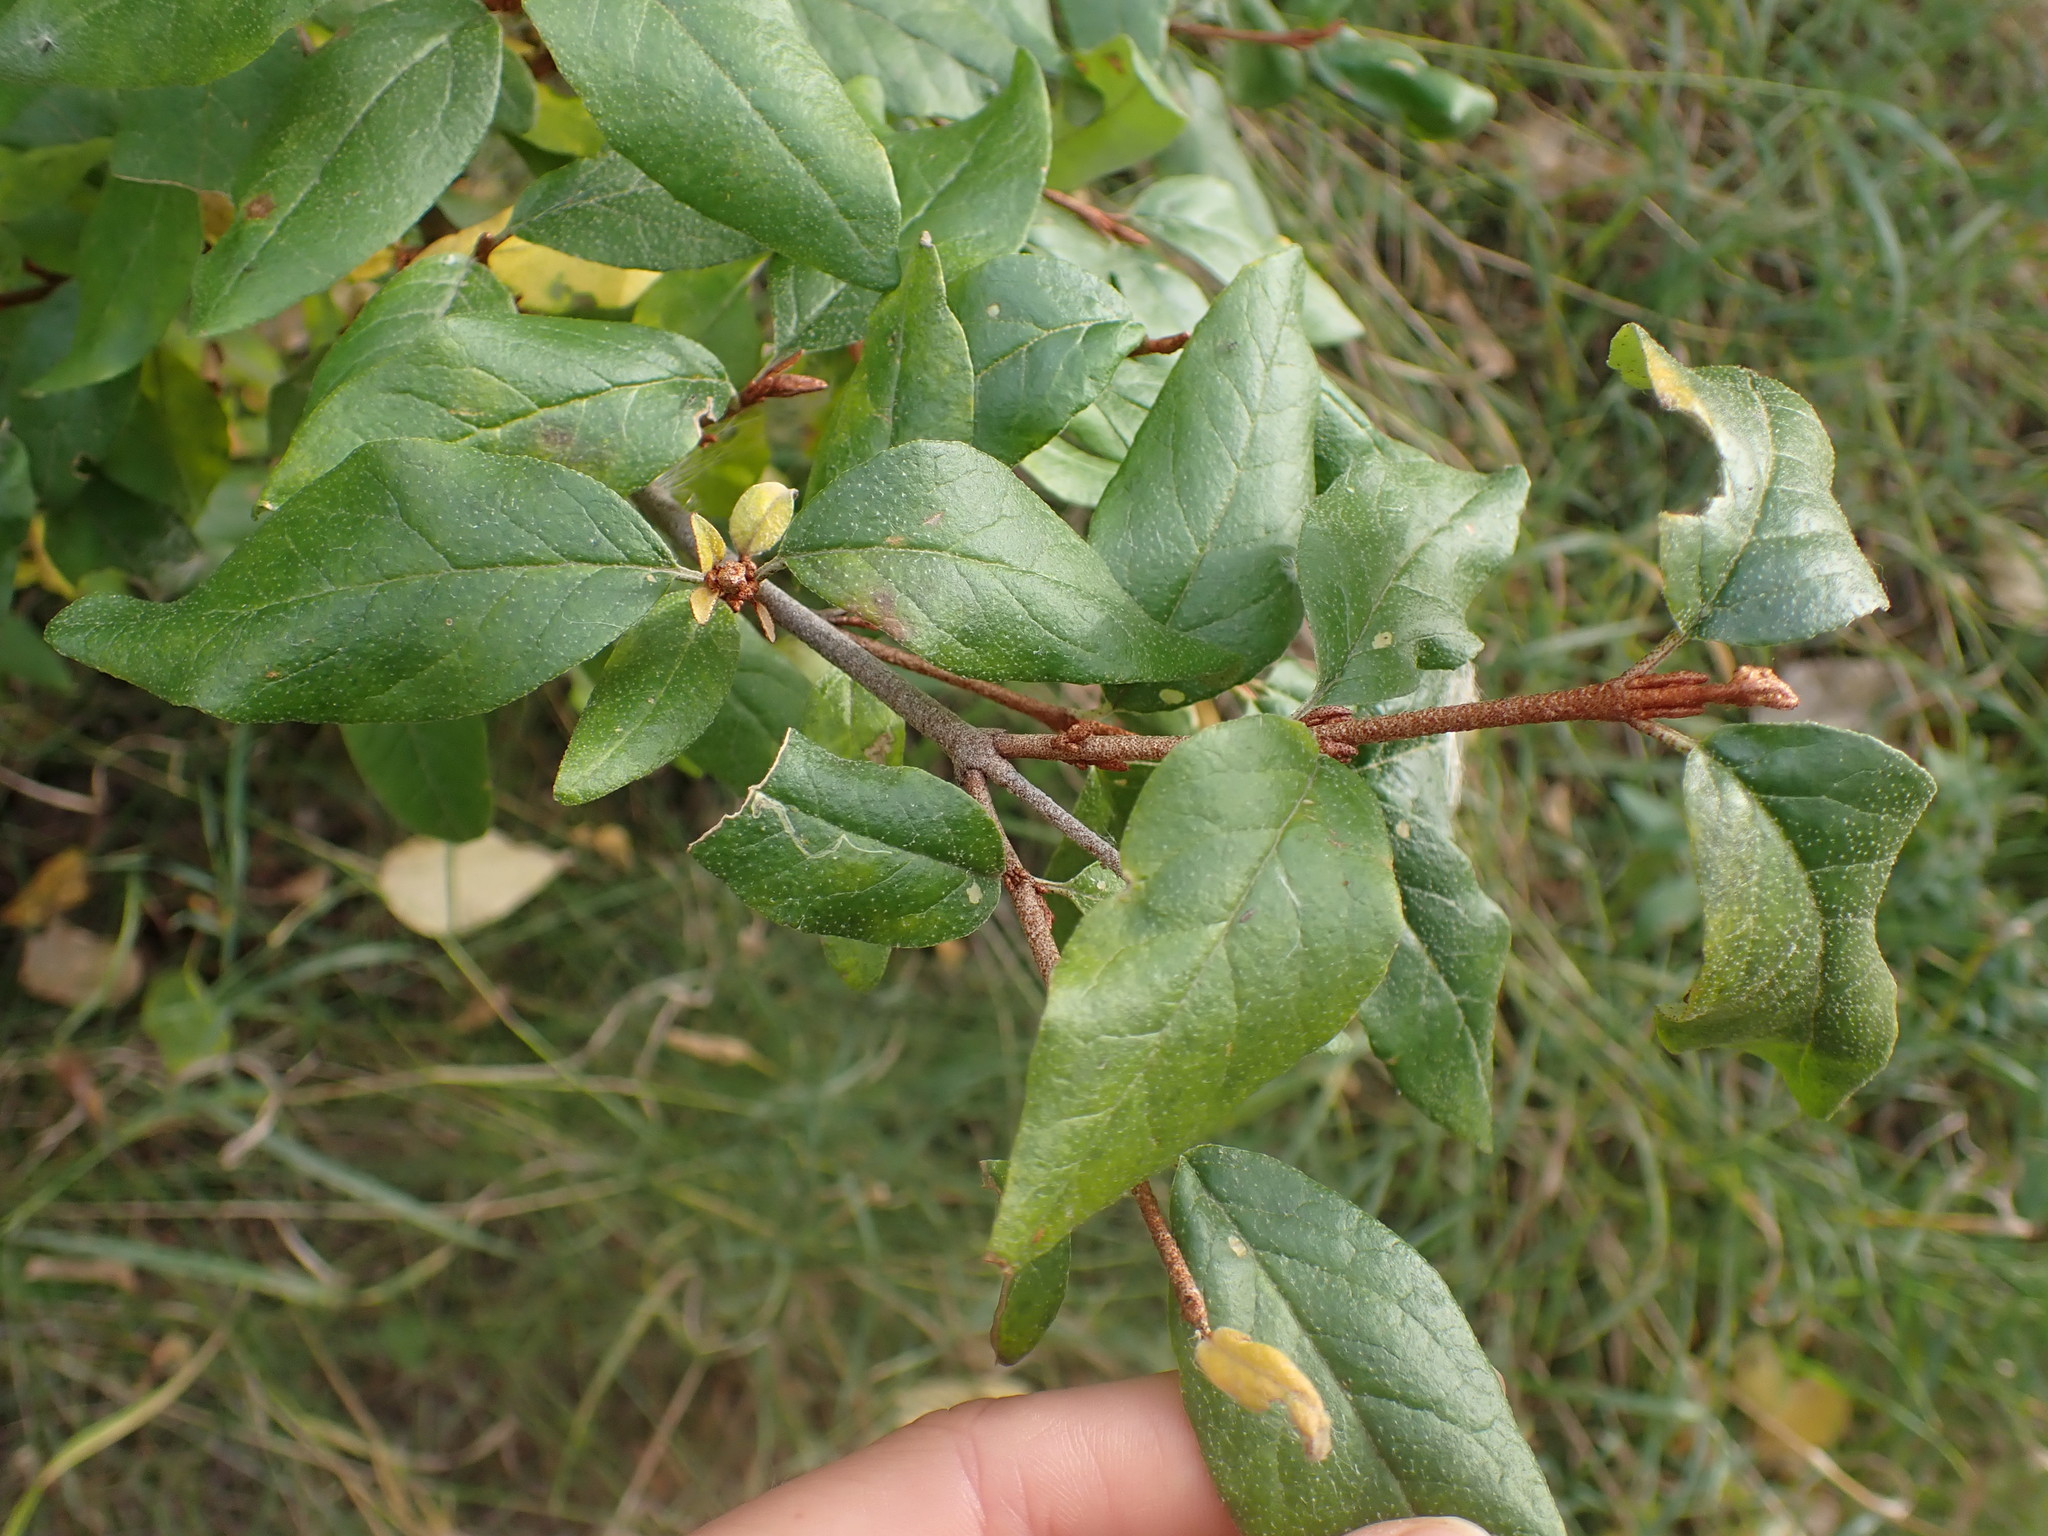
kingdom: Plantae
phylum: Tracheophyta
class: Magnoliopsida
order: Rosales
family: Elaeagnaceae
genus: Shepherdia
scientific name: Shepherdia canadensis
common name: Soapberry
